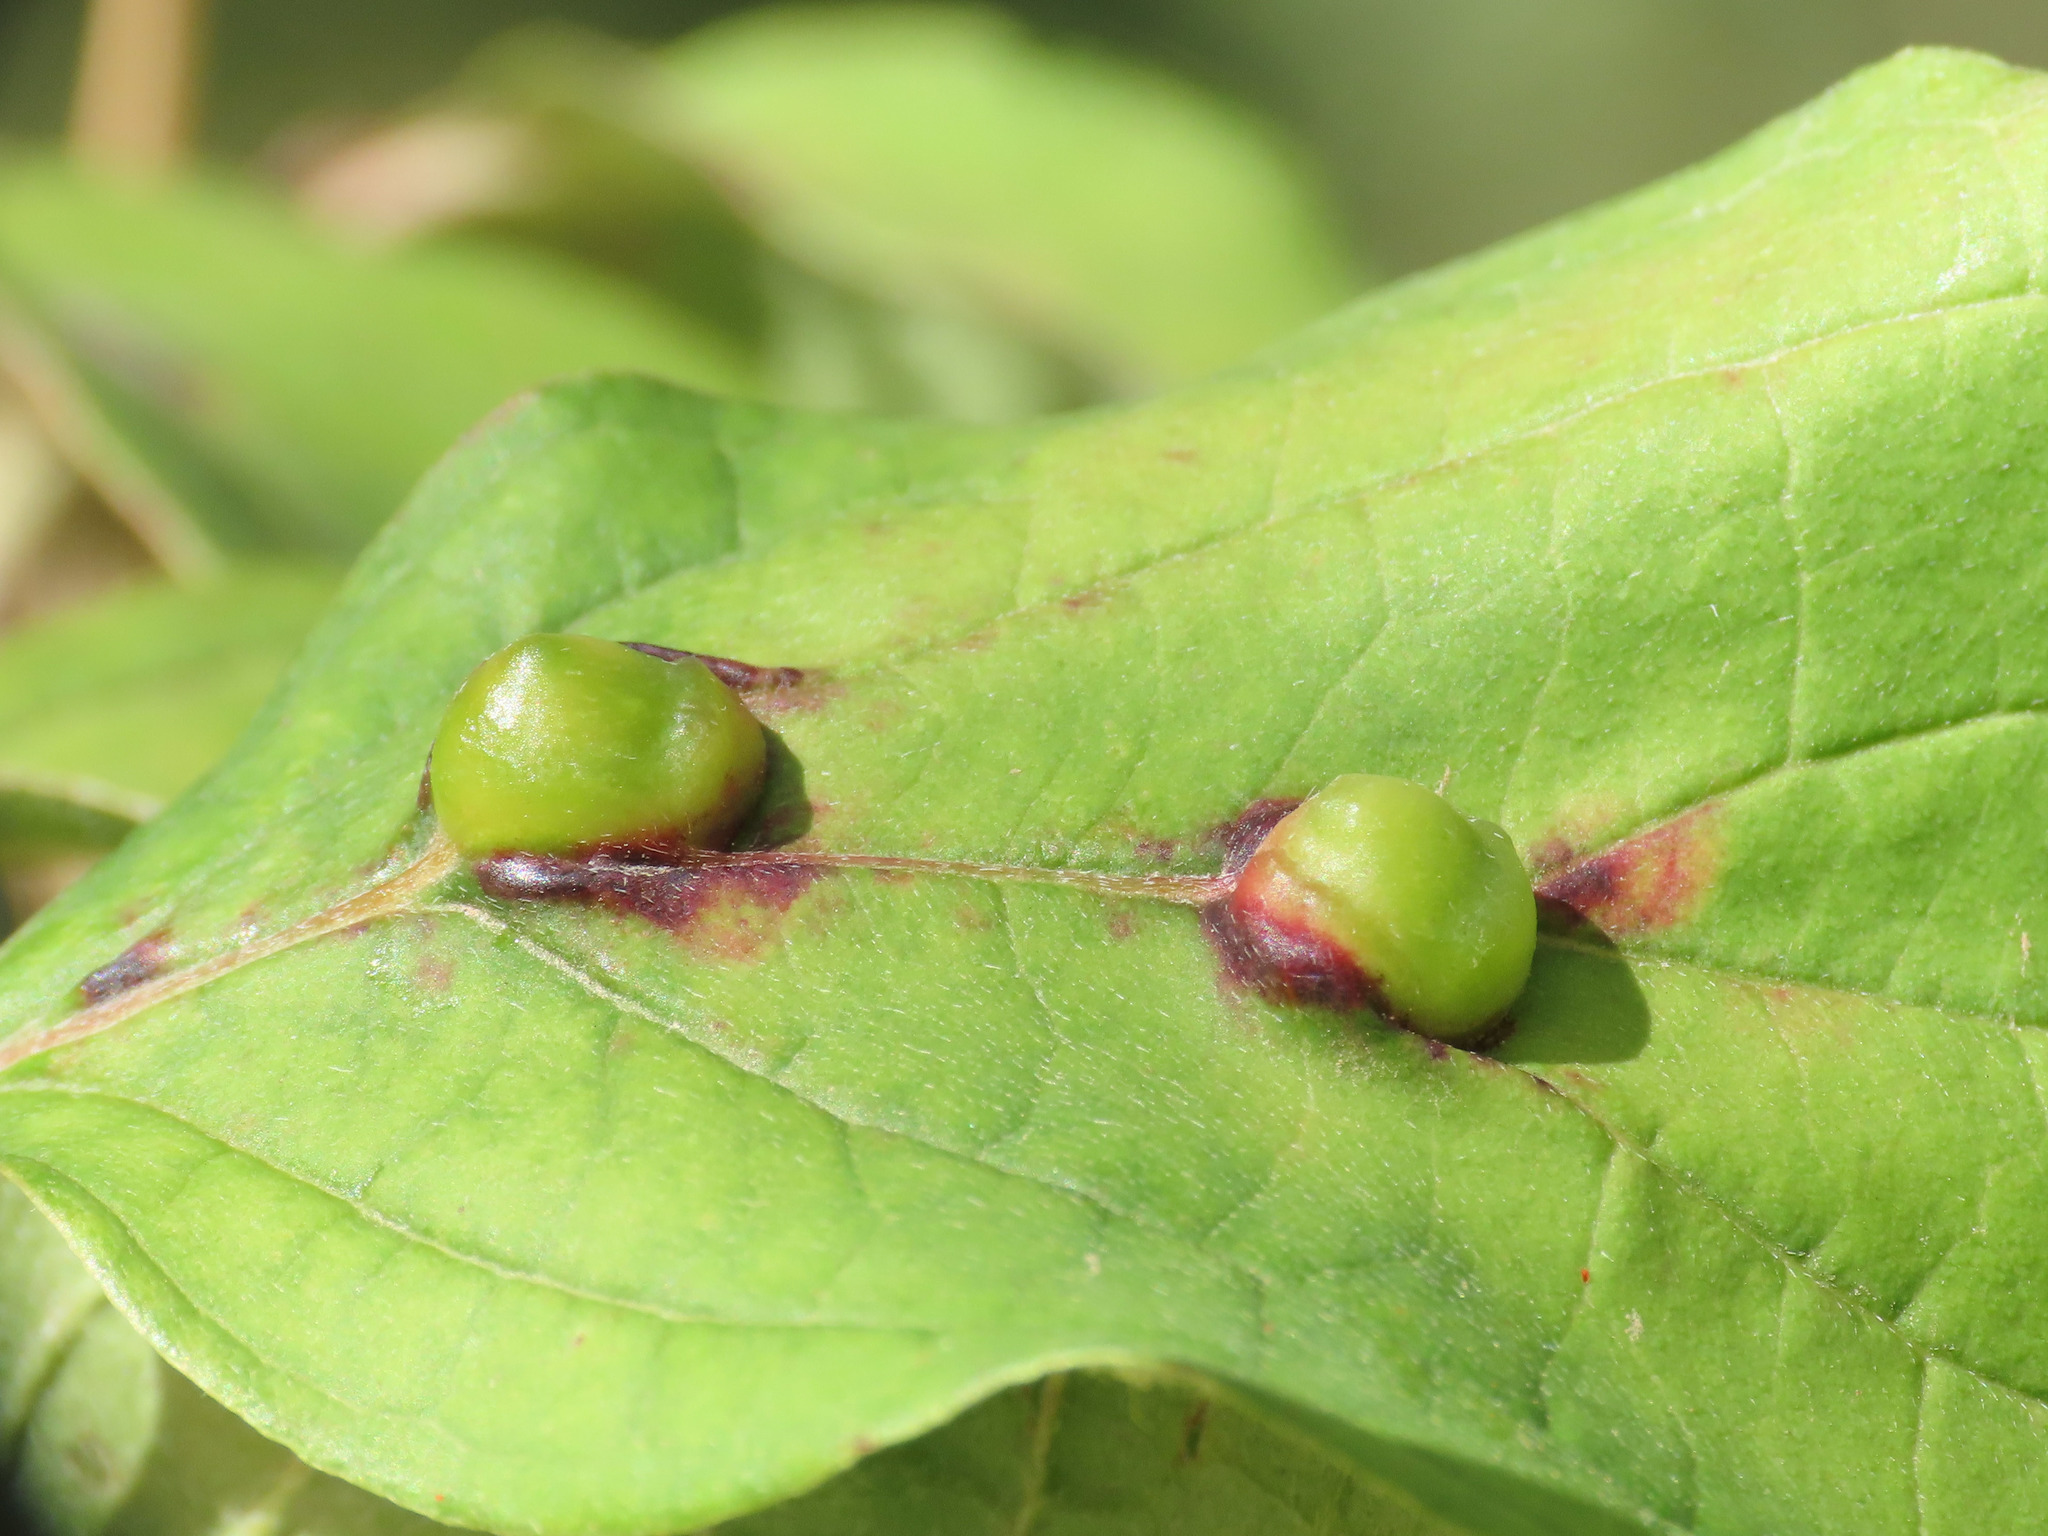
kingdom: Animalia
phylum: Arthropoda
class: Insecta
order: Diptera
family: Cecidomyiidae
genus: Craneiobia
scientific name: Craneiobia corni
